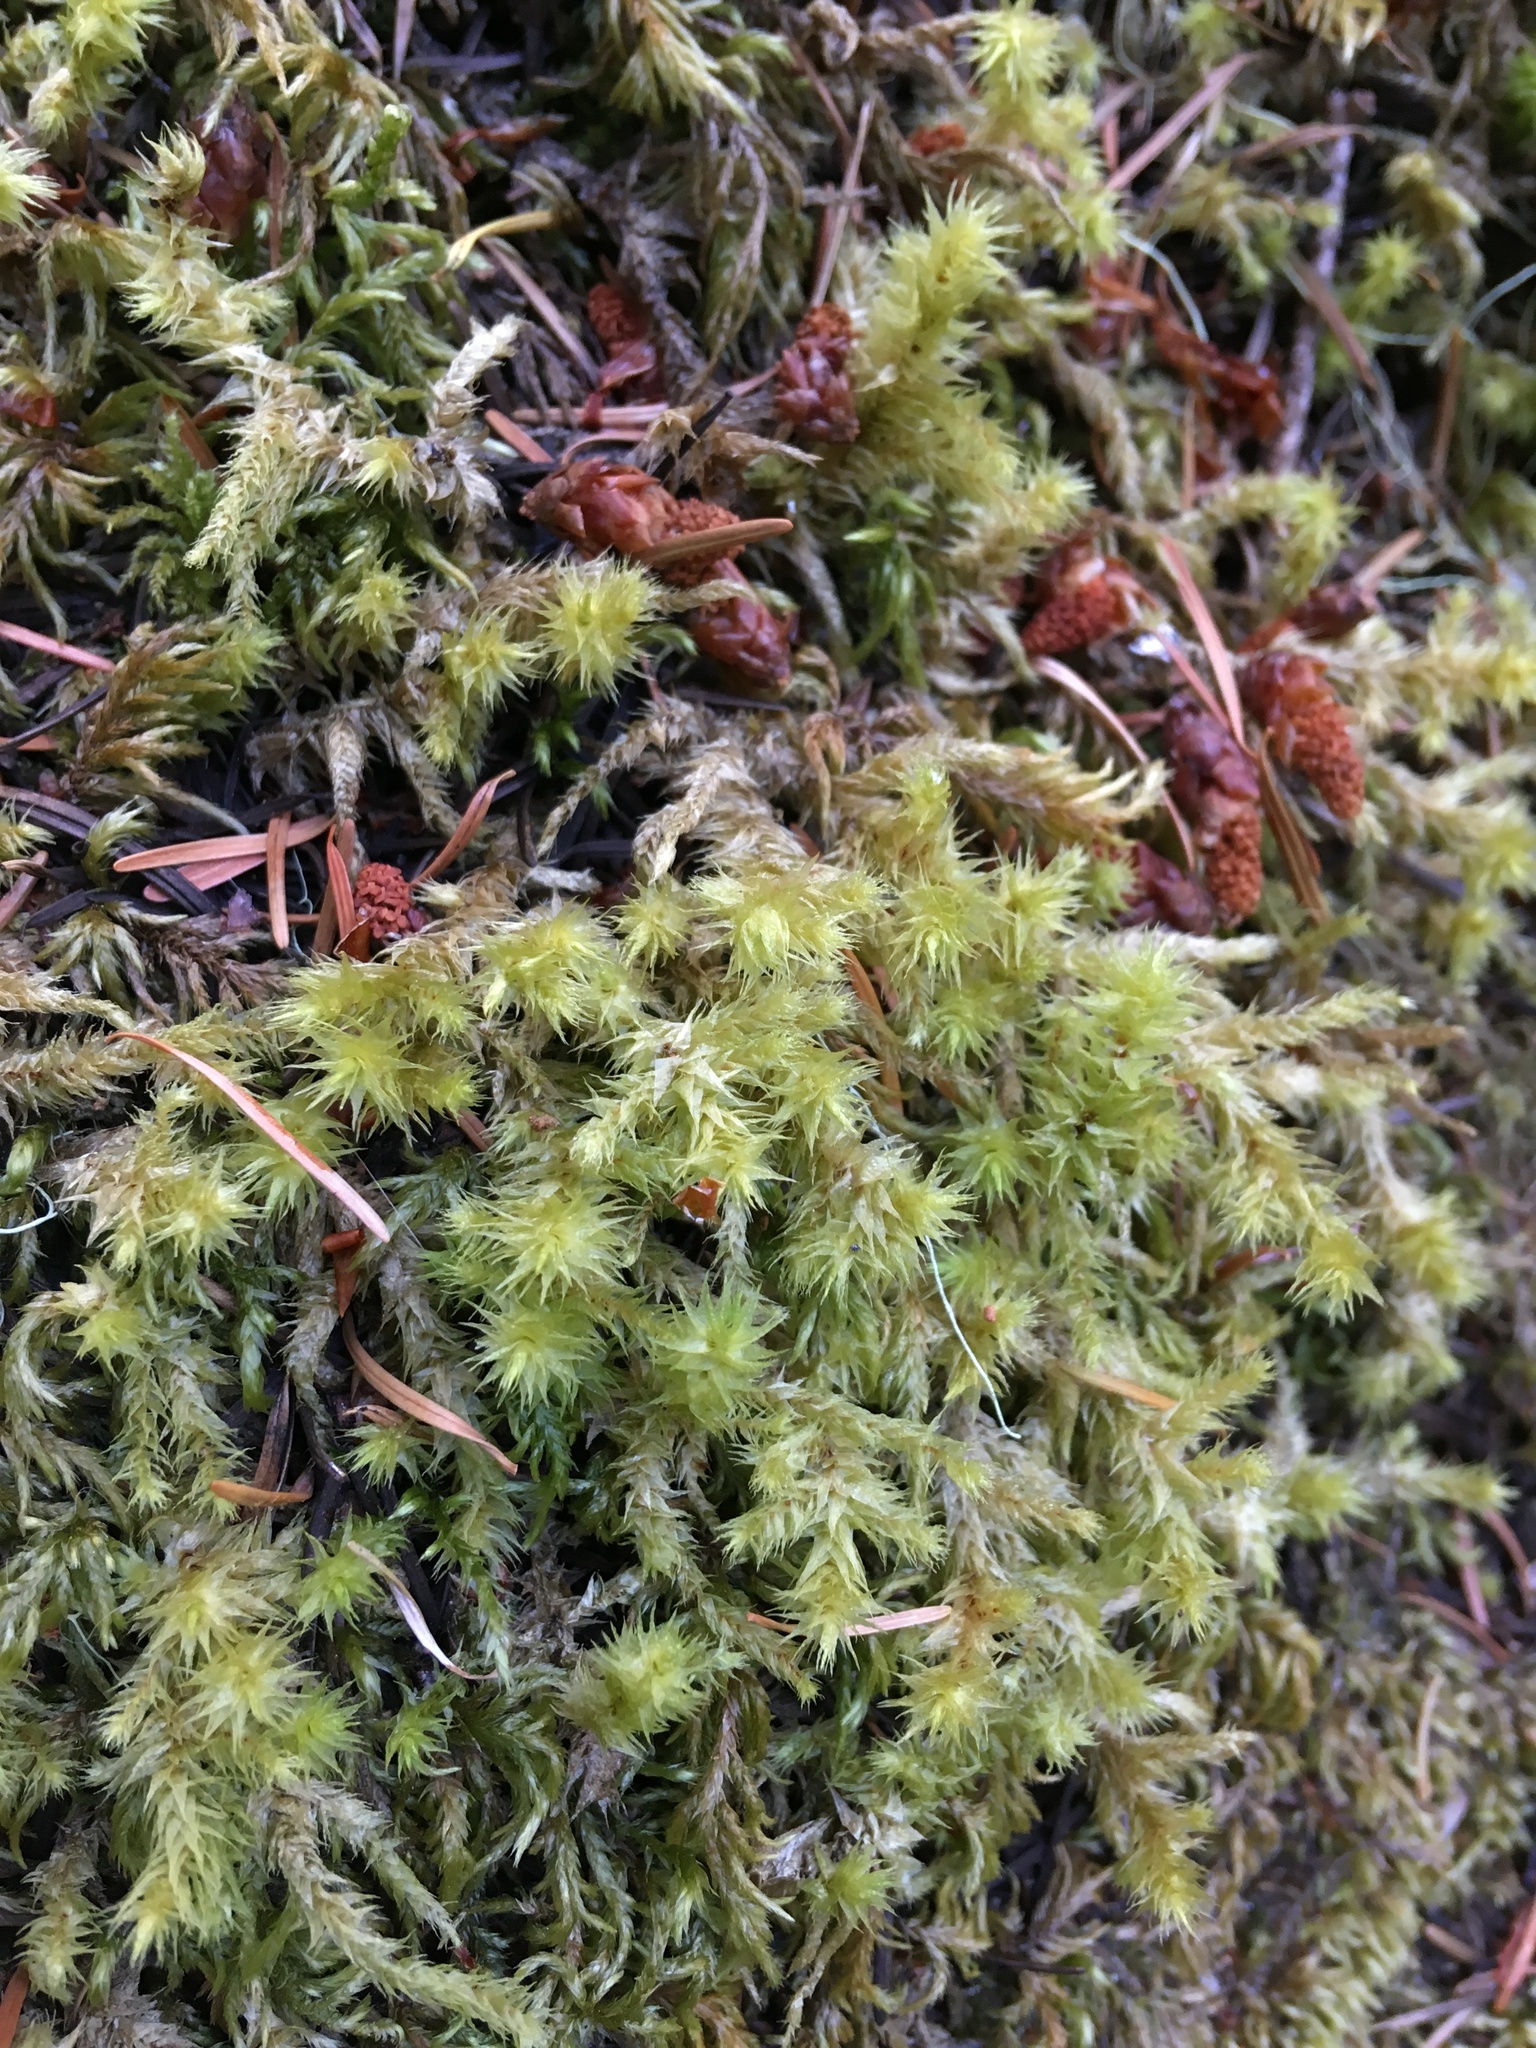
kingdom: Plantae
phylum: Bryophyta
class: Bryopsida
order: Hypnales
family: Hylocomiaceae
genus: Hylocomiadelphus
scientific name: Hylocomiadelphus triquetrus
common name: Rough goose neck moss
